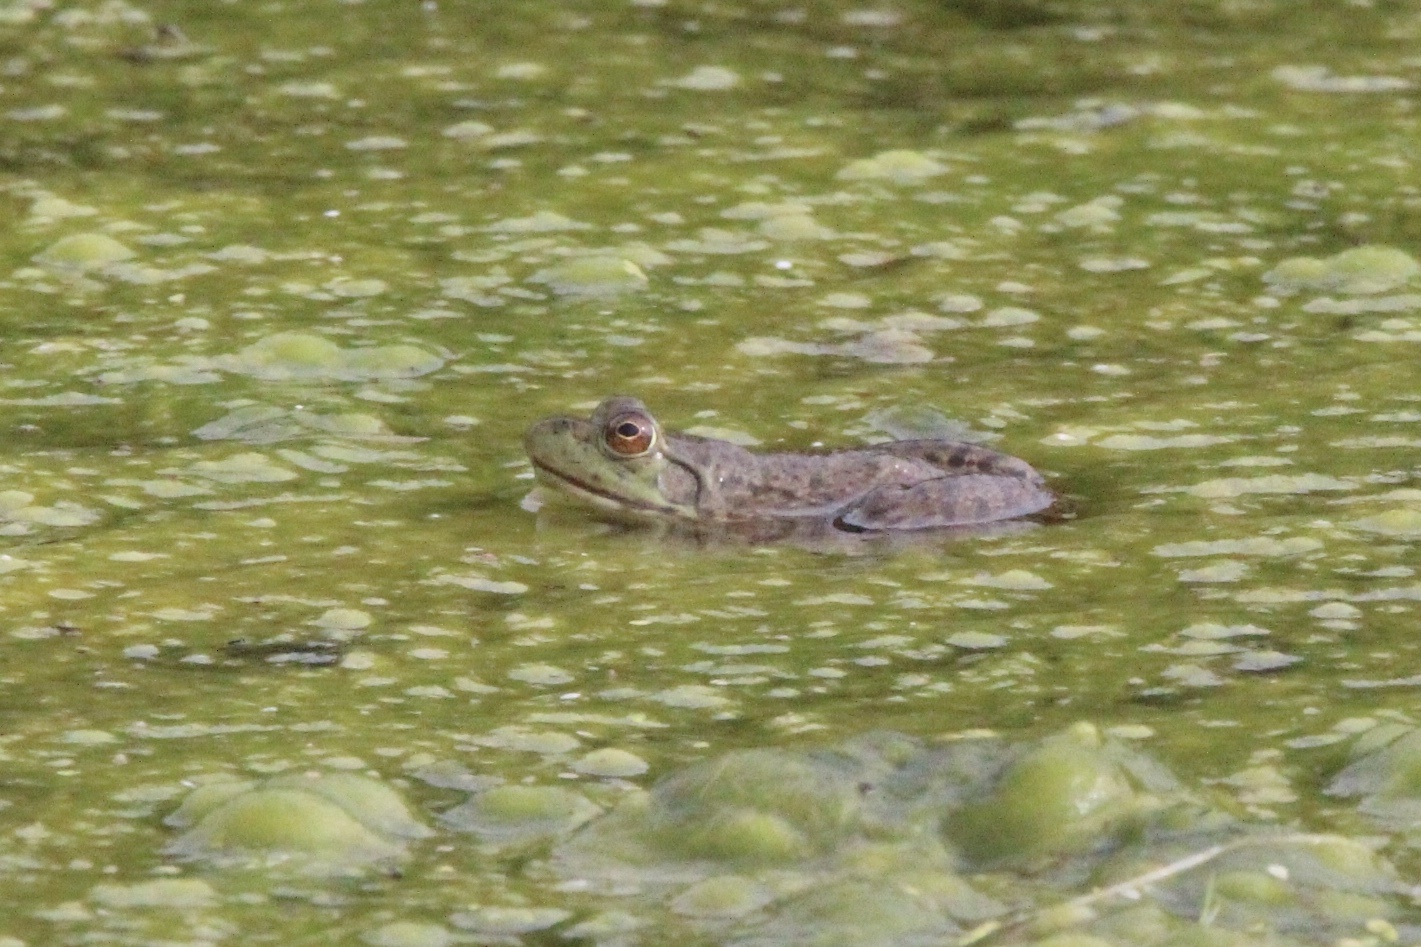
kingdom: Animalia
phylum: Chordata
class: Amphibia
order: Anura
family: Ranidae
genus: Lithobates
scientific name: Lithobates catesbeianus
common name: American bullfrog
